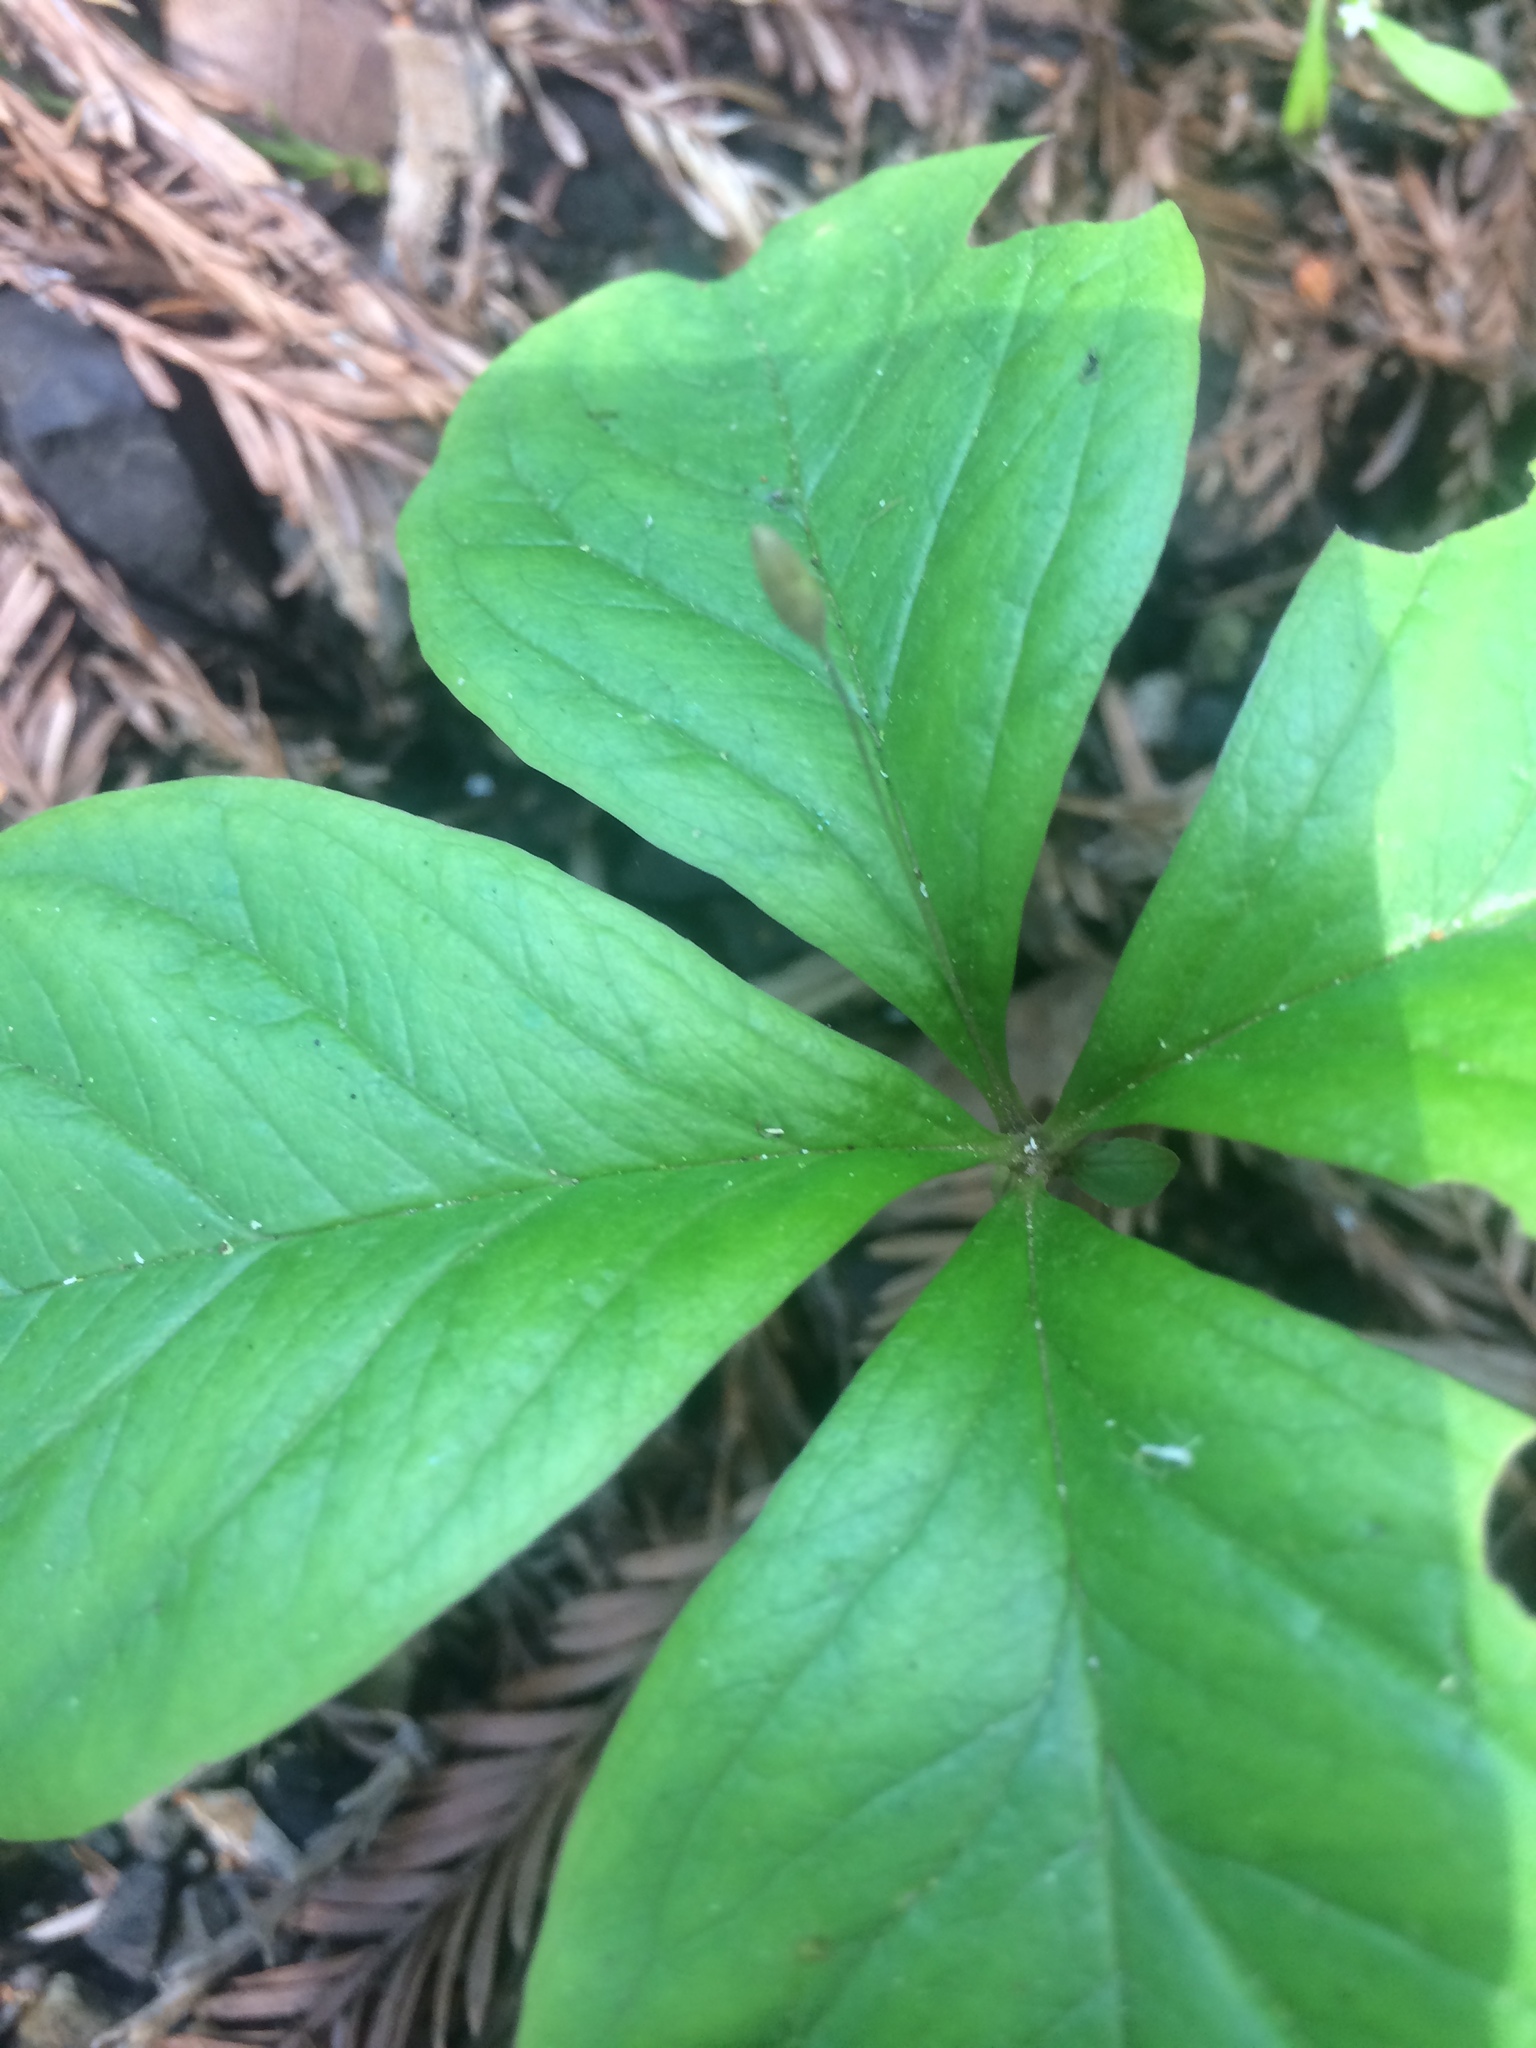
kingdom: Plantae
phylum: Tracheophyta
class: Magnoliopsida
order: Ericales
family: Primulaceae
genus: Lysimachia
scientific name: Lysimachia latifolia
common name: Pacific starflower
